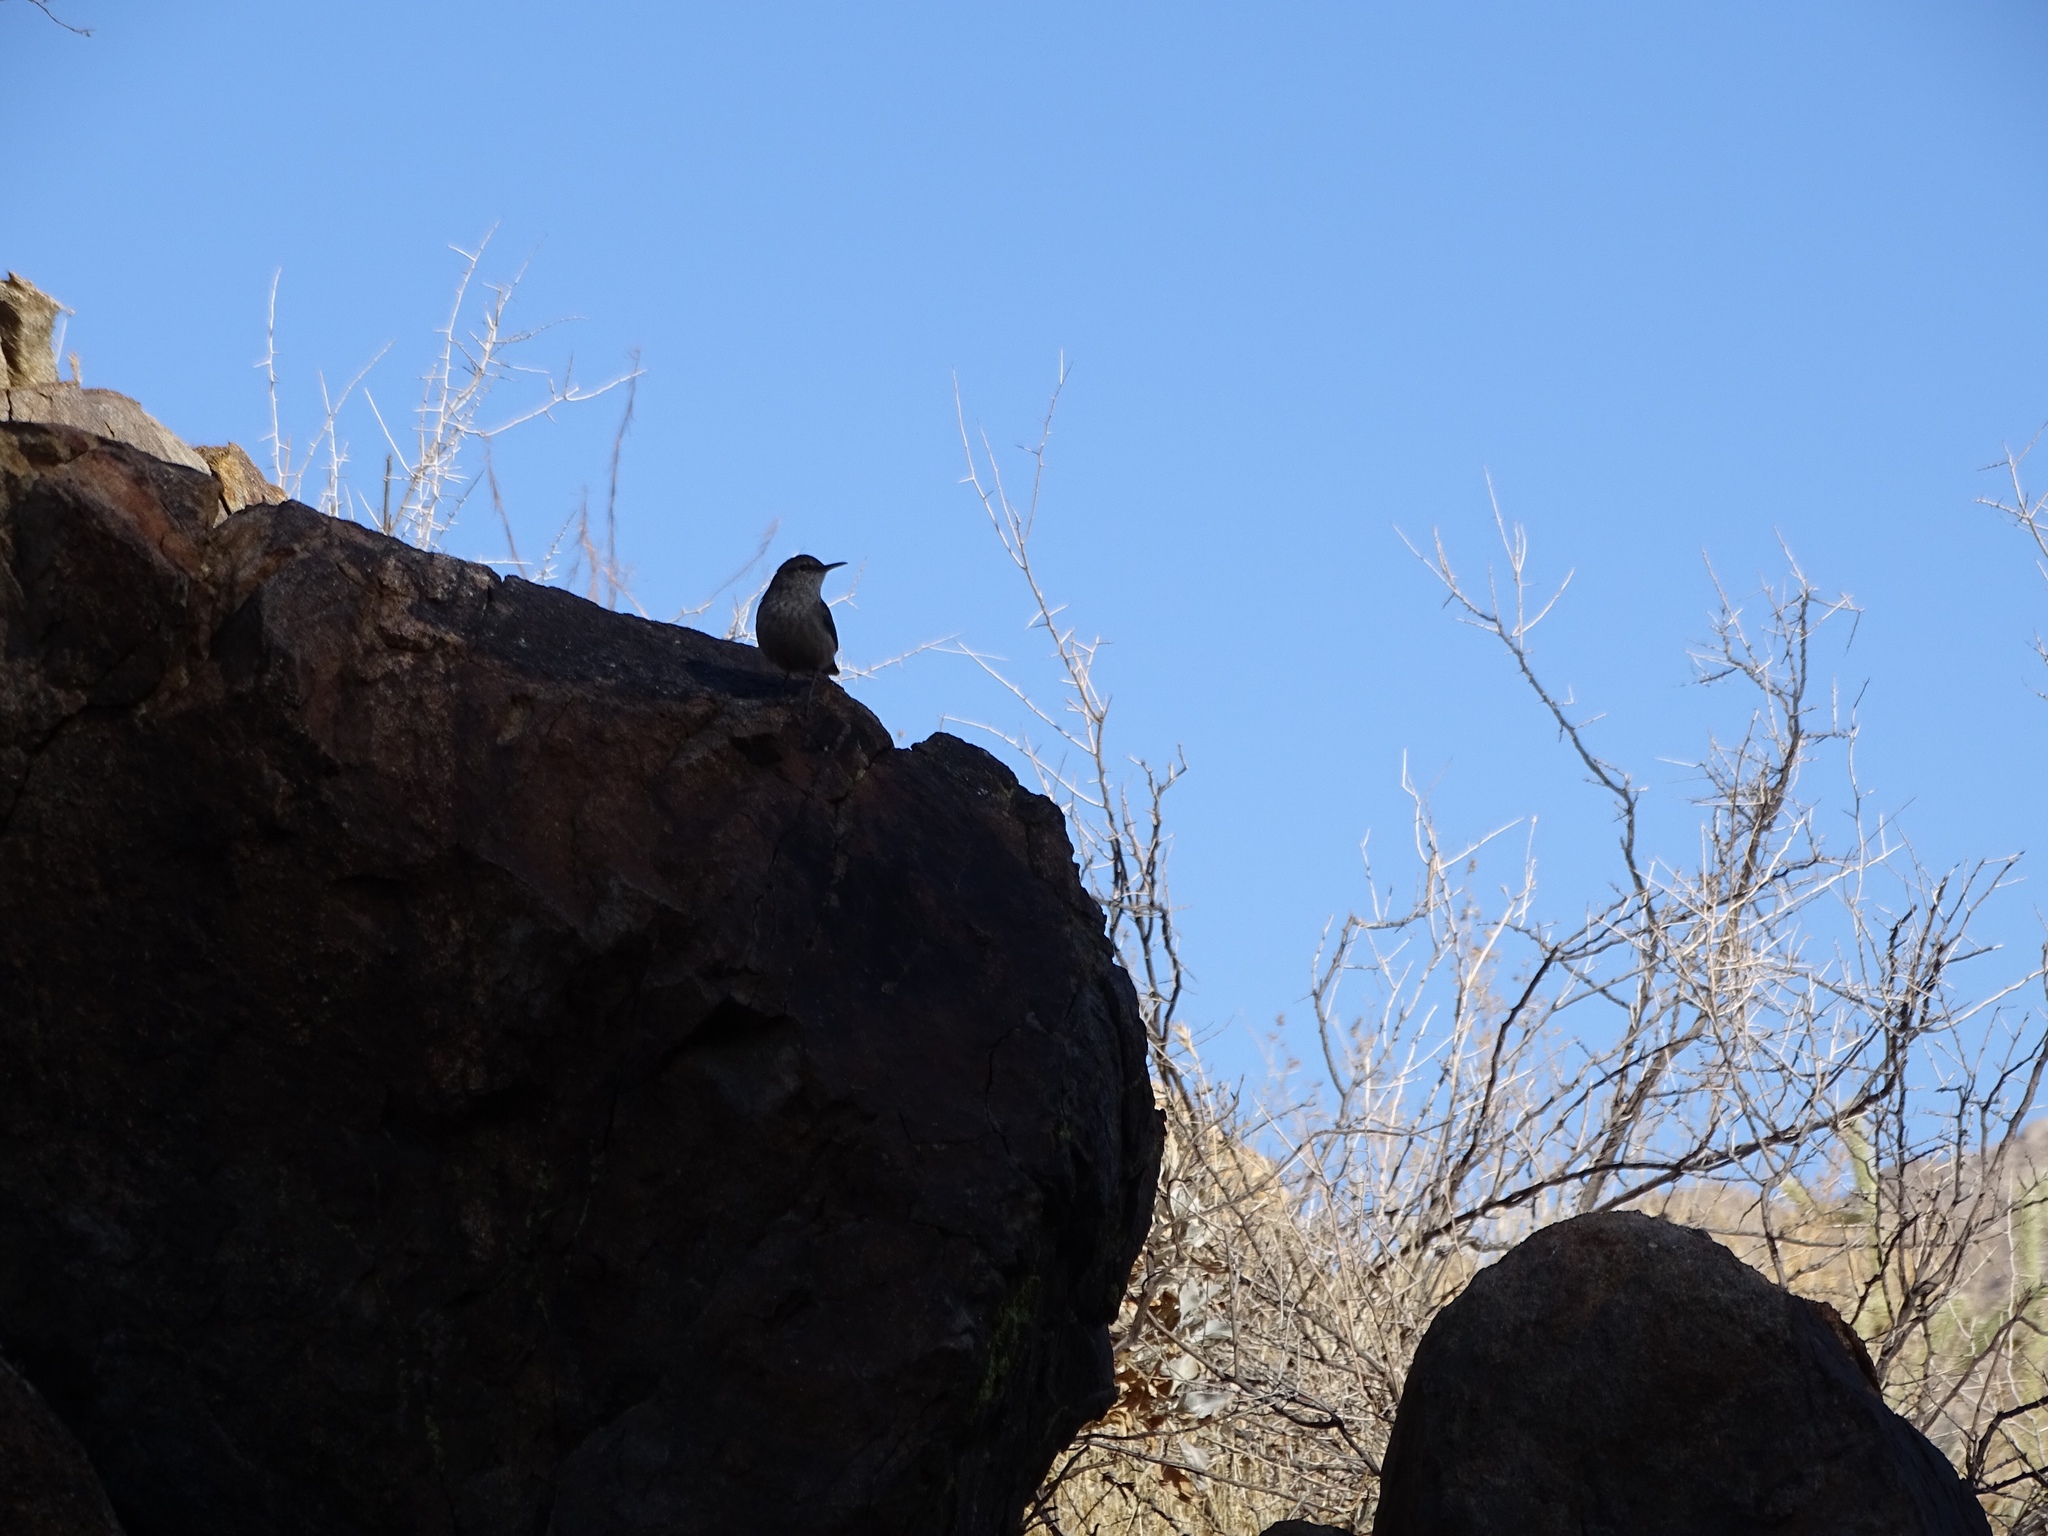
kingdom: Animalia
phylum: Chordata
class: Aves
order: Passeriformes
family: Troglodytidae
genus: Salpinctes
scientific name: Salpinctes obsoletus
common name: Rock wren
